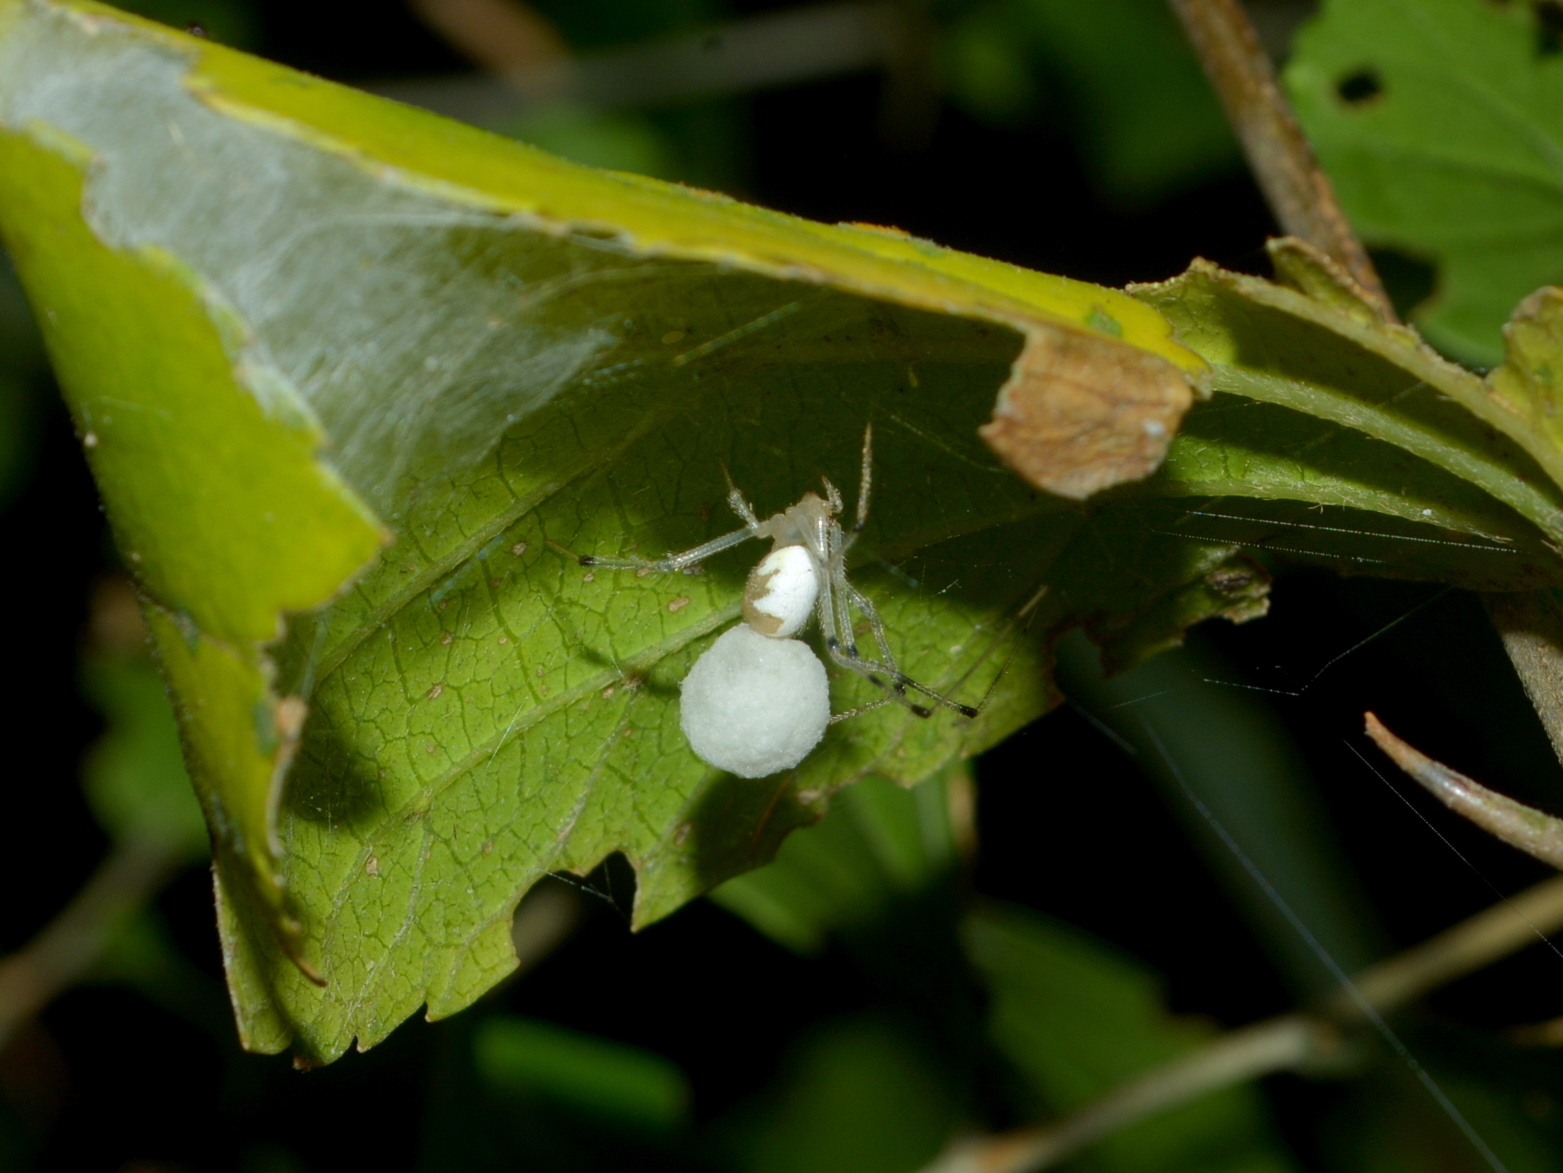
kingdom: Animalia
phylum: Arthropoda
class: Arachnida
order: Araneae
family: Theridiidae
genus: Theridion
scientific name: Theridion calcynatum
